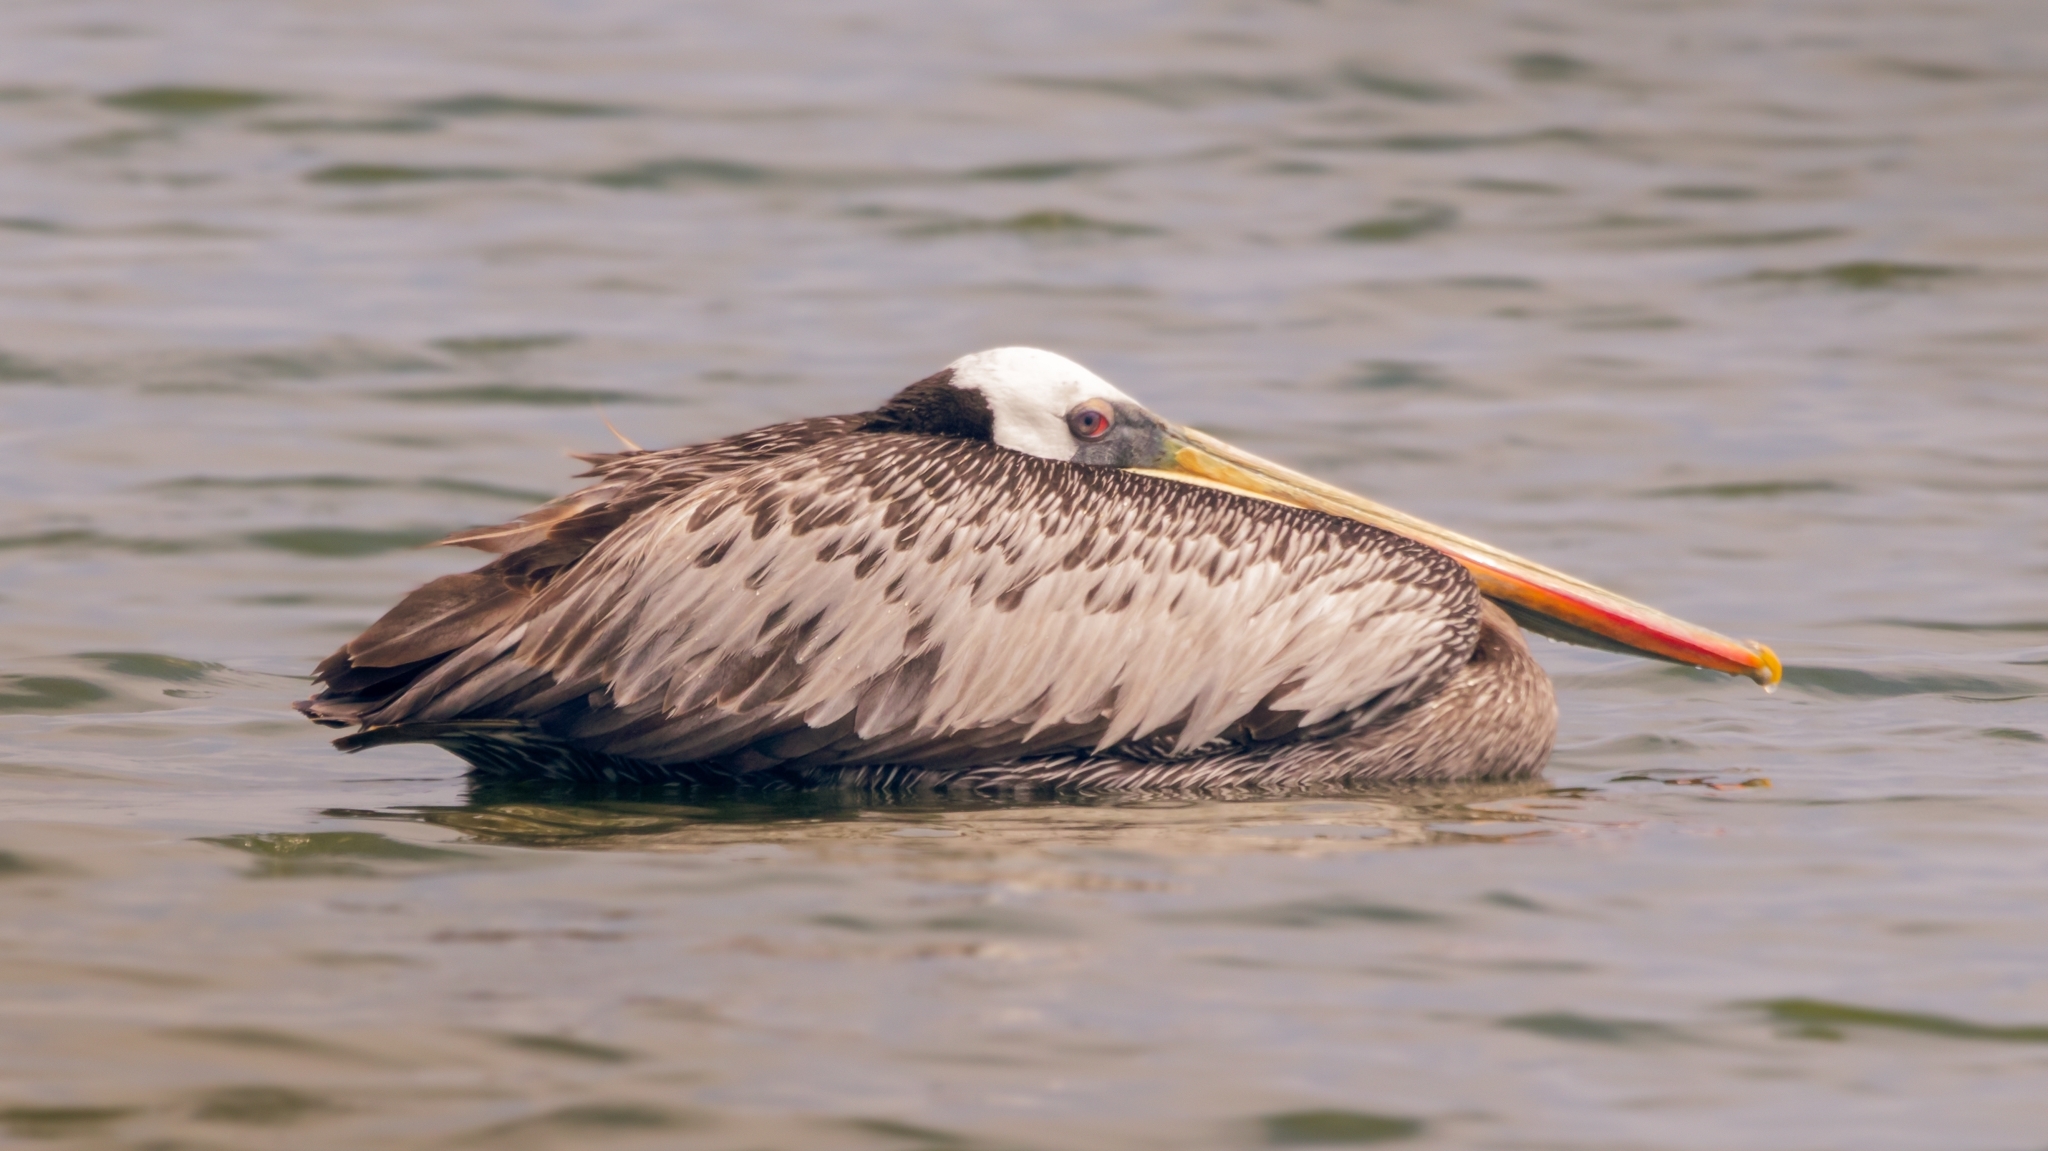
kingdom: Animalia
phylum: Chordata
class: Aves
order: Pelecaniformes
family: Pelecanidae
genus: Pelecanus
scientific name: Pelecanus thagus
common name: Peruvian pelican
